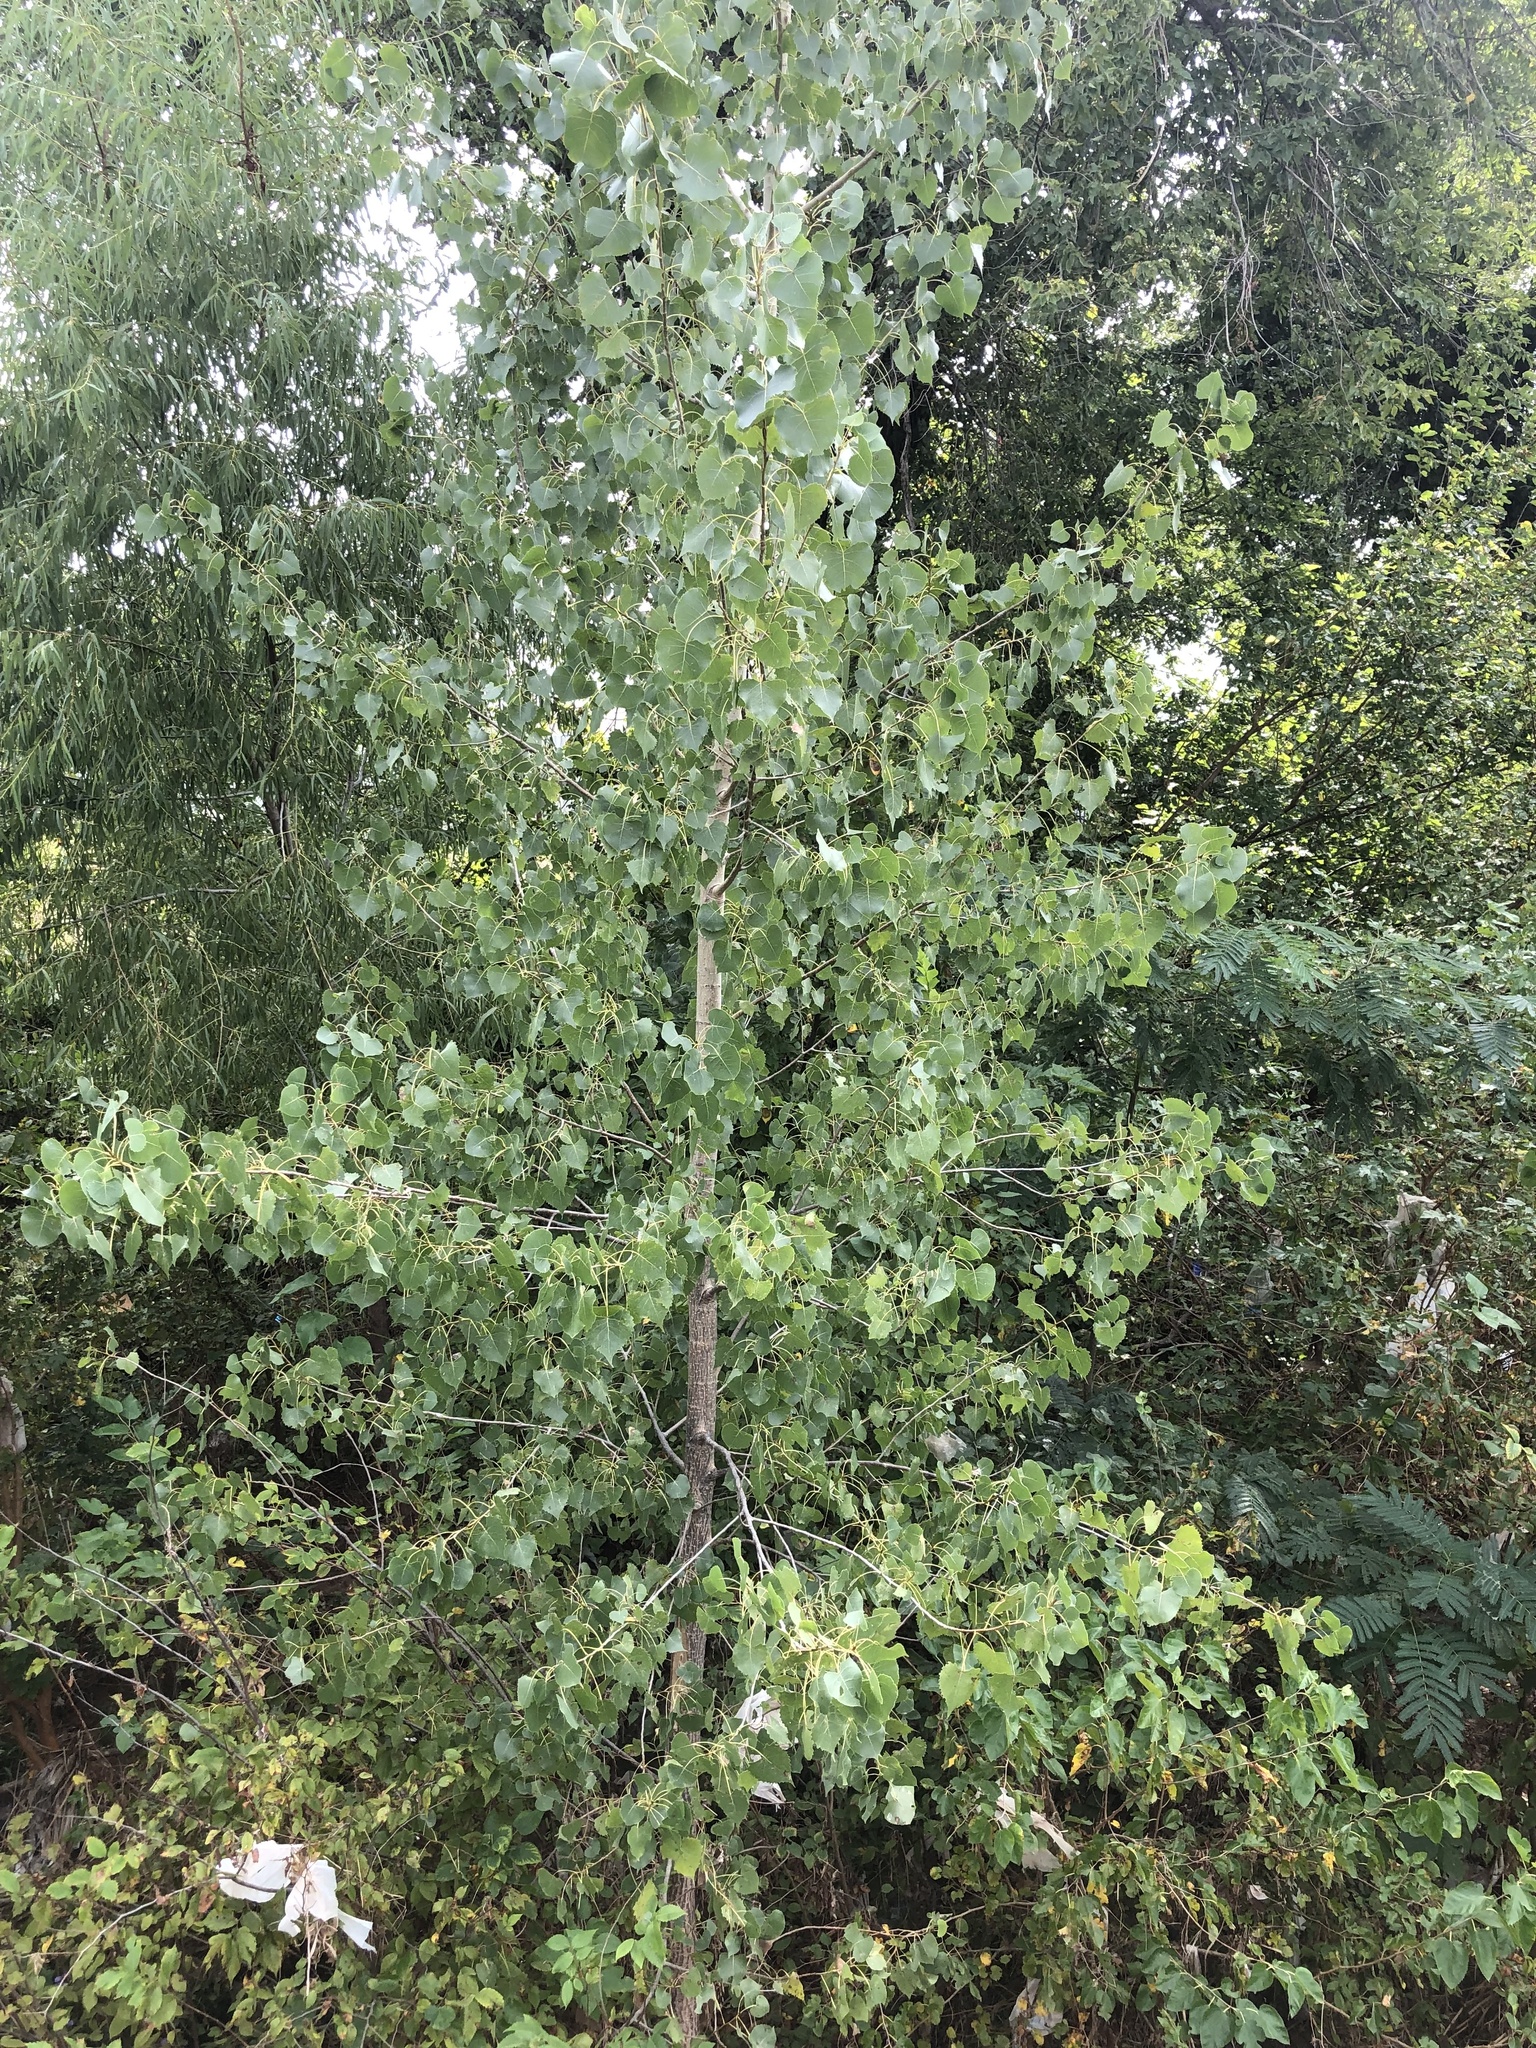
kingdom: Plantae
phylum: Tracheophyta
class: Magnoliopsida
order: Malpighiales
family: Salicaceae
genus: Populus
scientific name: Populus deltoides
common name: Eastern cottonwood
